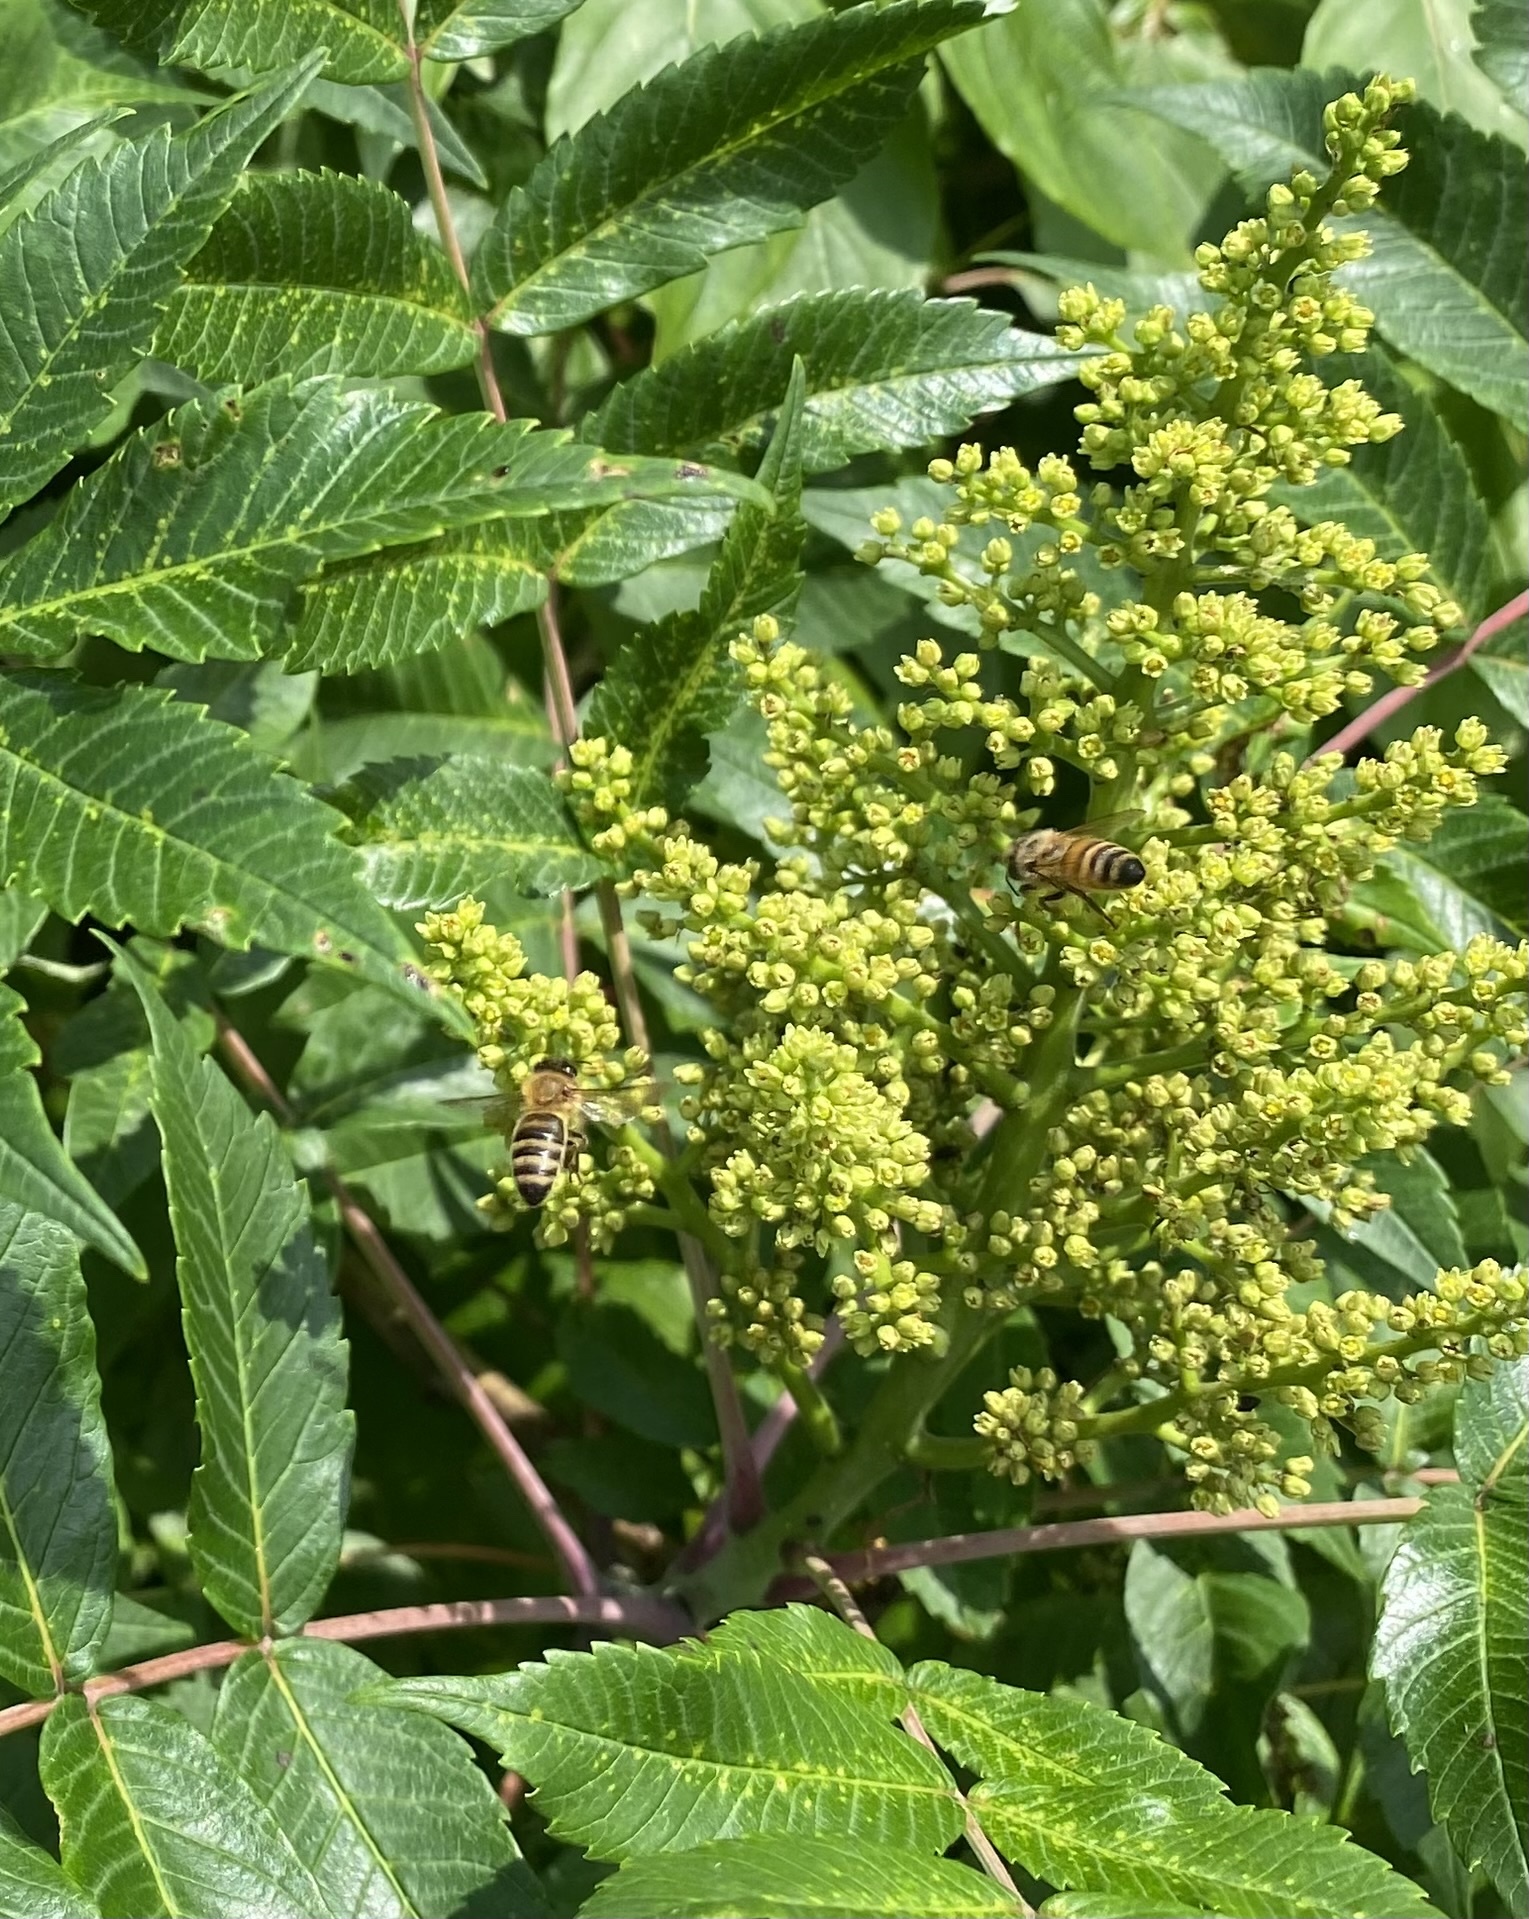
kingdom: Animalia
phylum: Arthropoda
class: Insecta
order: Hymenoptera
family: Apidae
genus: Apis
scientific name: Apis mellifera
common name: Honey bee
